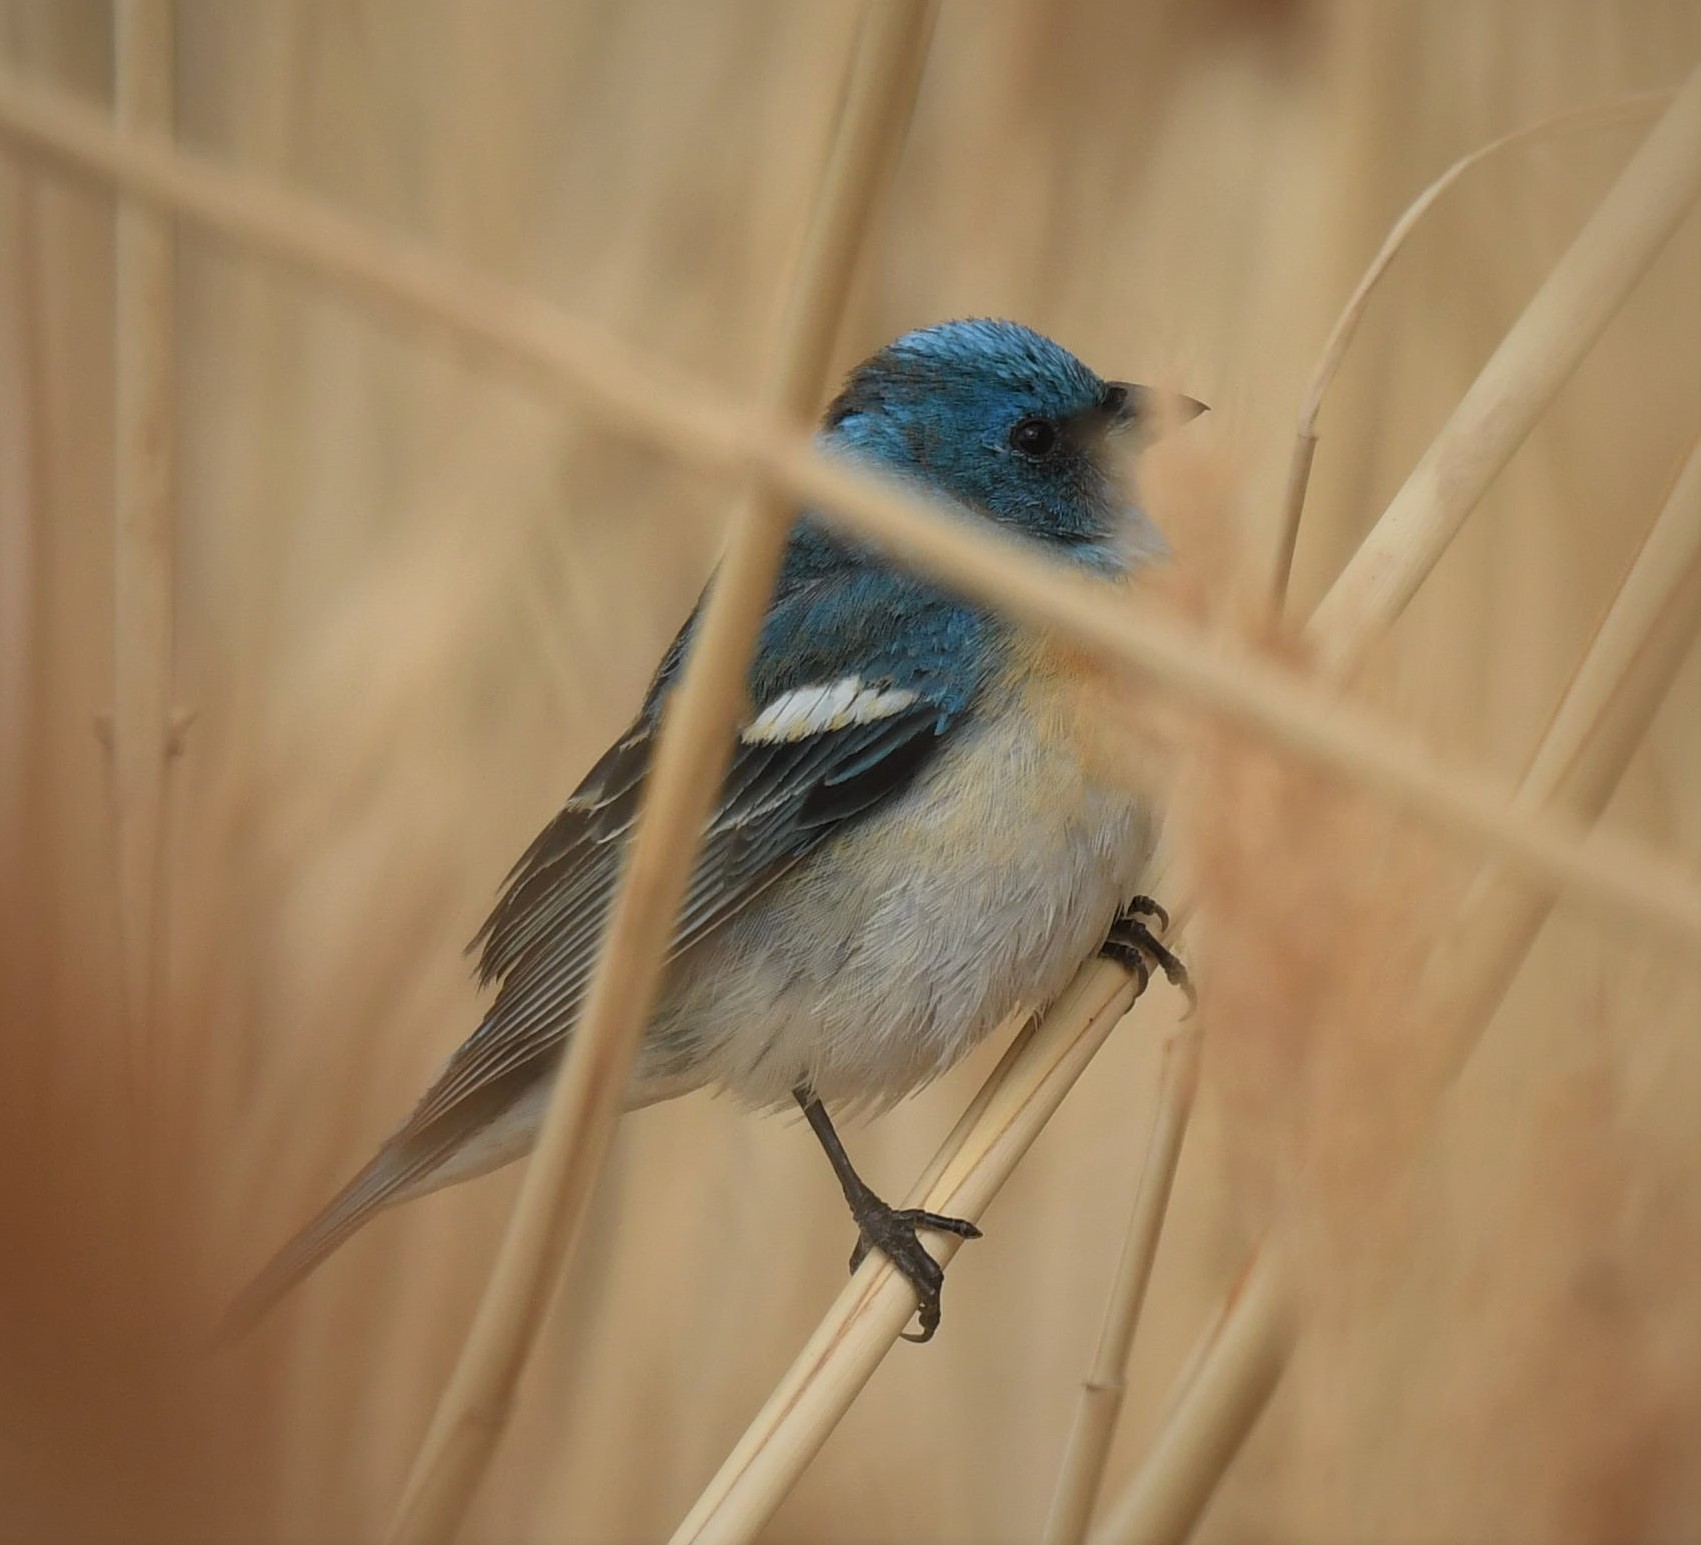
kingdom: Animalia
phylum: Chordata
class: Aves
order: Passeriformes
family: Cardinalidae
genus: Passerina
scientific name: Passerina amoena
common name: Lazuli bunting
